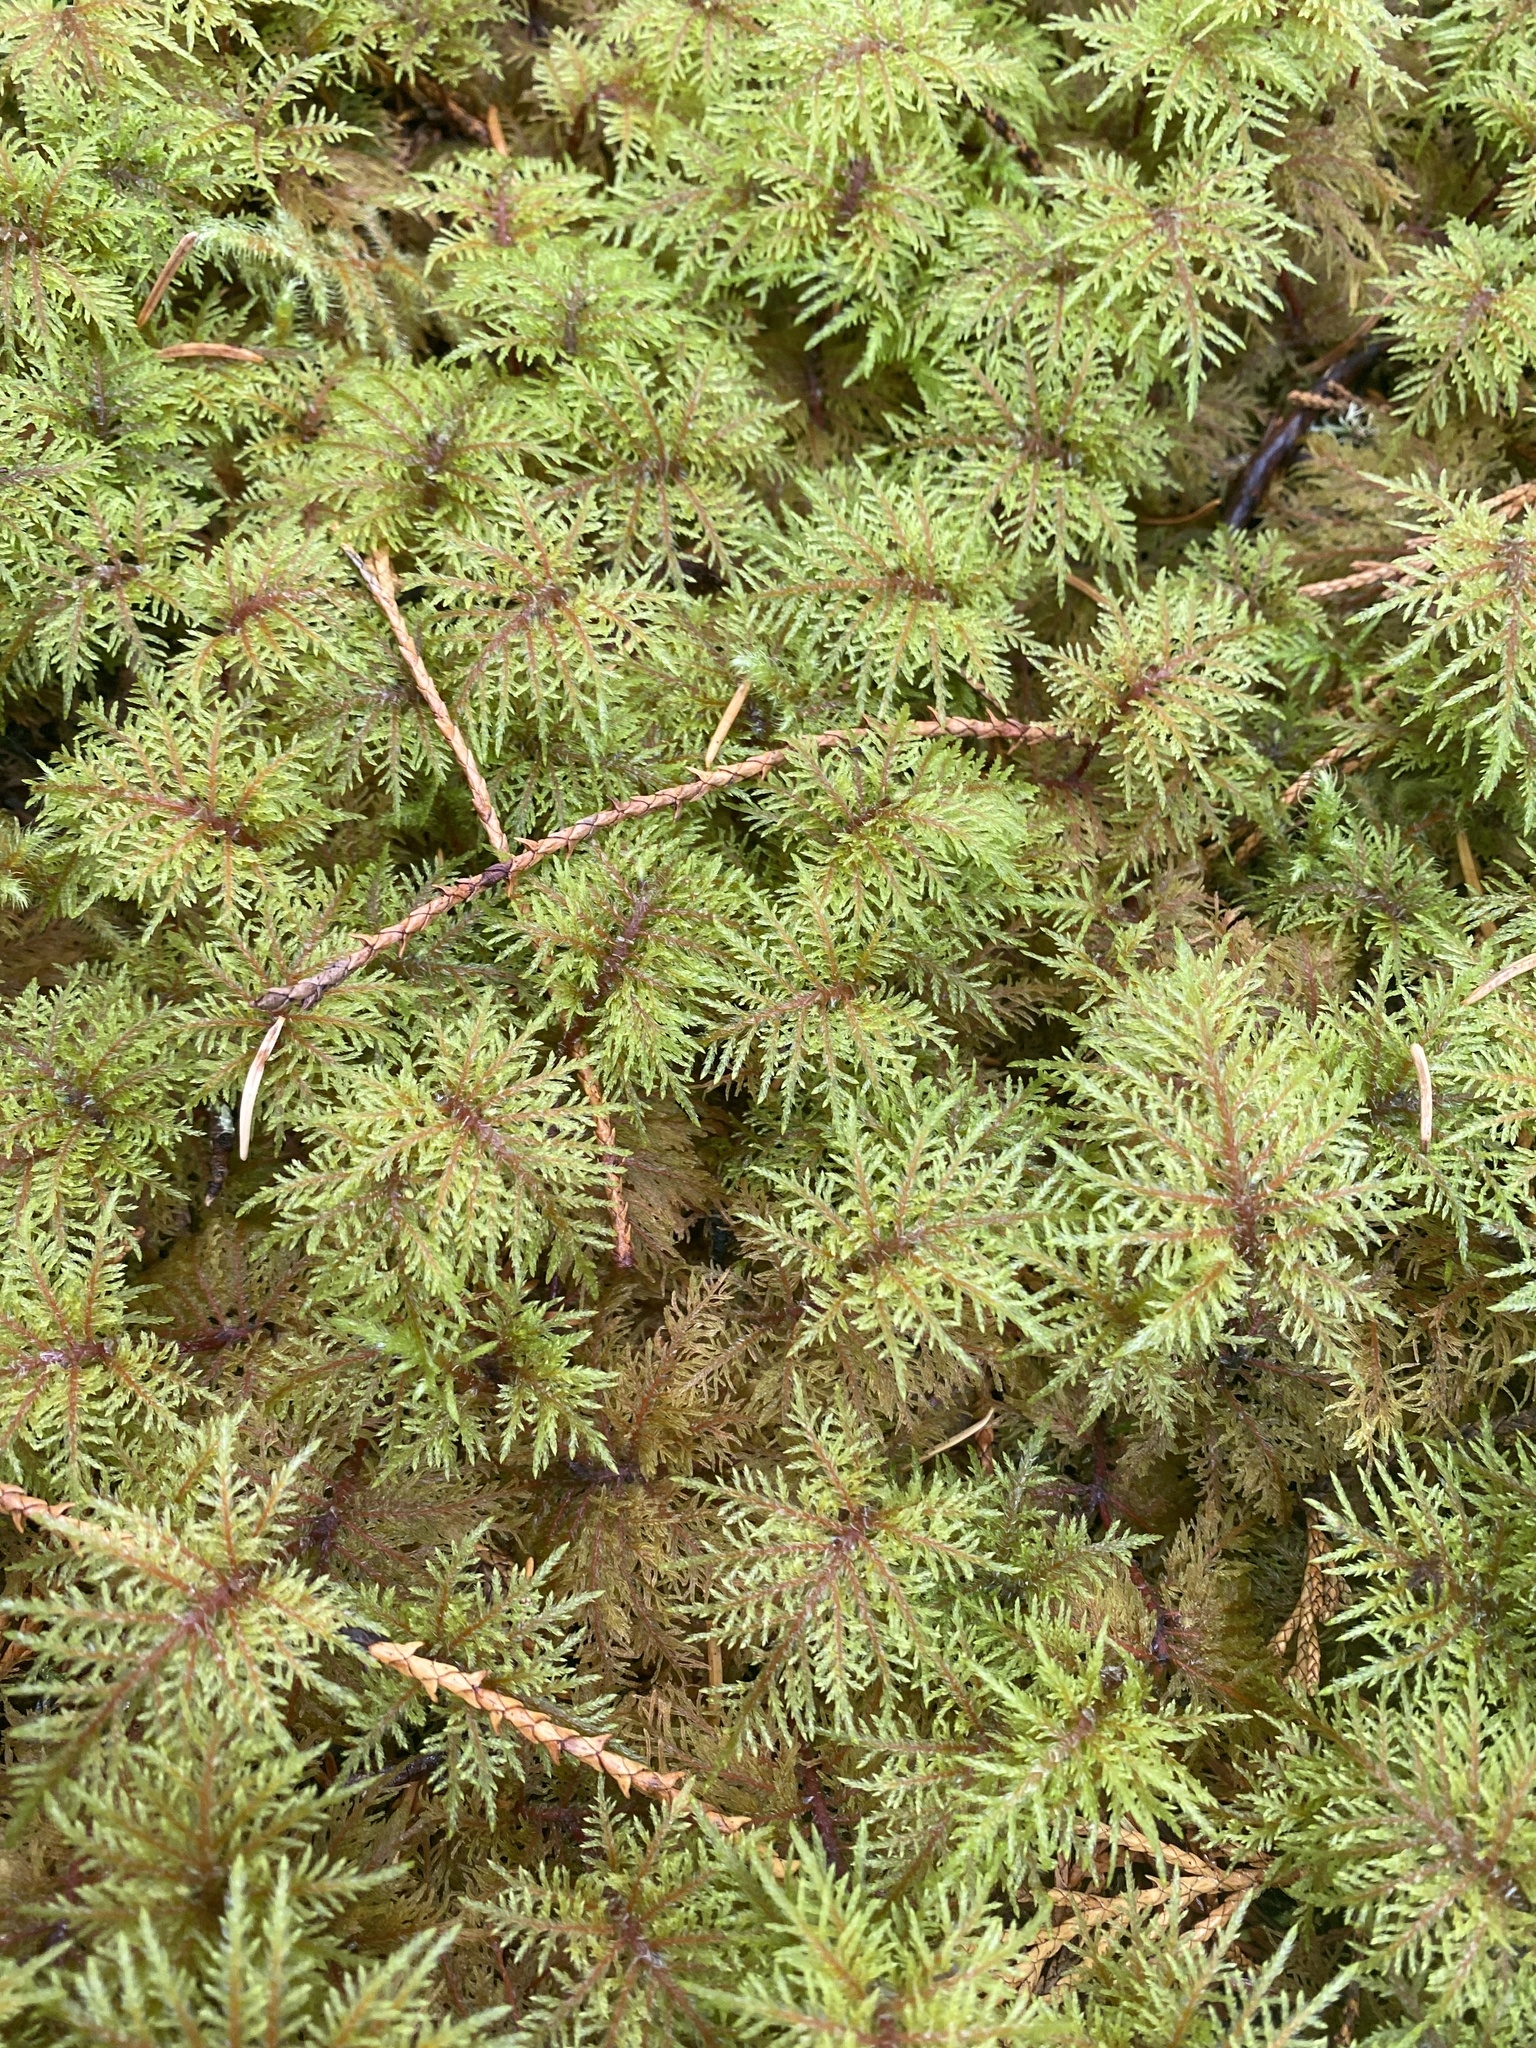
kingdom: Plantae
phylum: Bryophyta
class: Bryopsida
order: Hypnales
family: Hylocomiaceae
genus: Hylocomium
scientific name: Hylocomium splendens
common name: Stairstep moss
